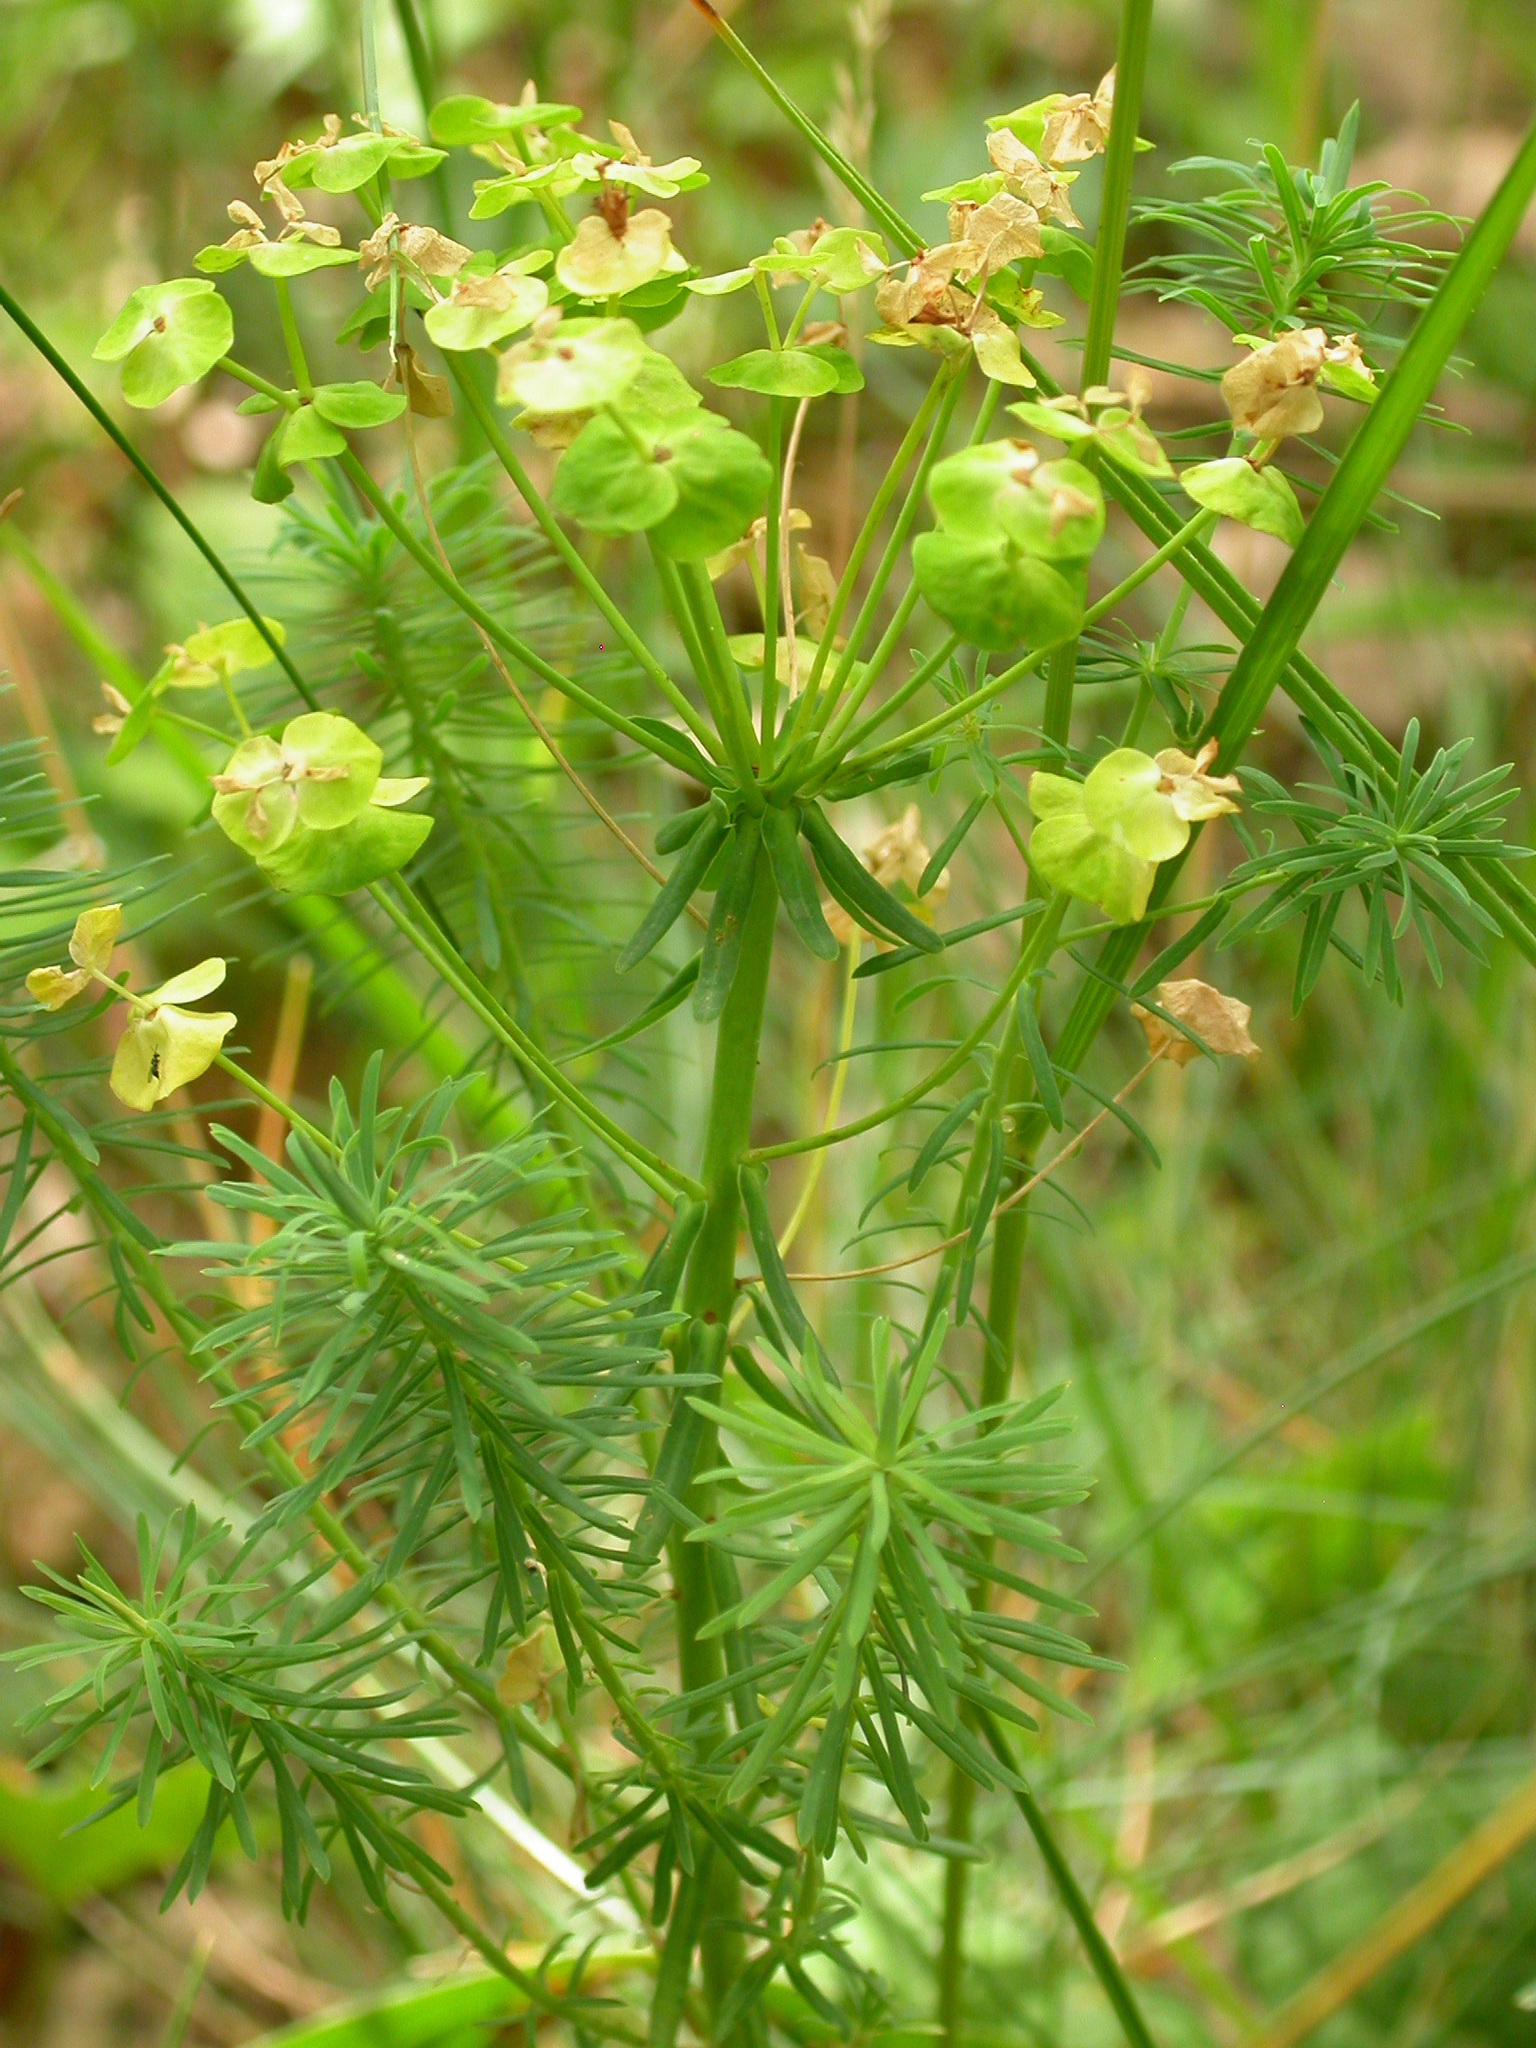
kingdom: Plantae
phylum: Tracheophyta
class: Magnoliopsida
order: Malpighiales
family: Euphorbiaceae
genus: Euphorbia
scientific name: Euphorbia cyparissias
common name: Cypress spurge
